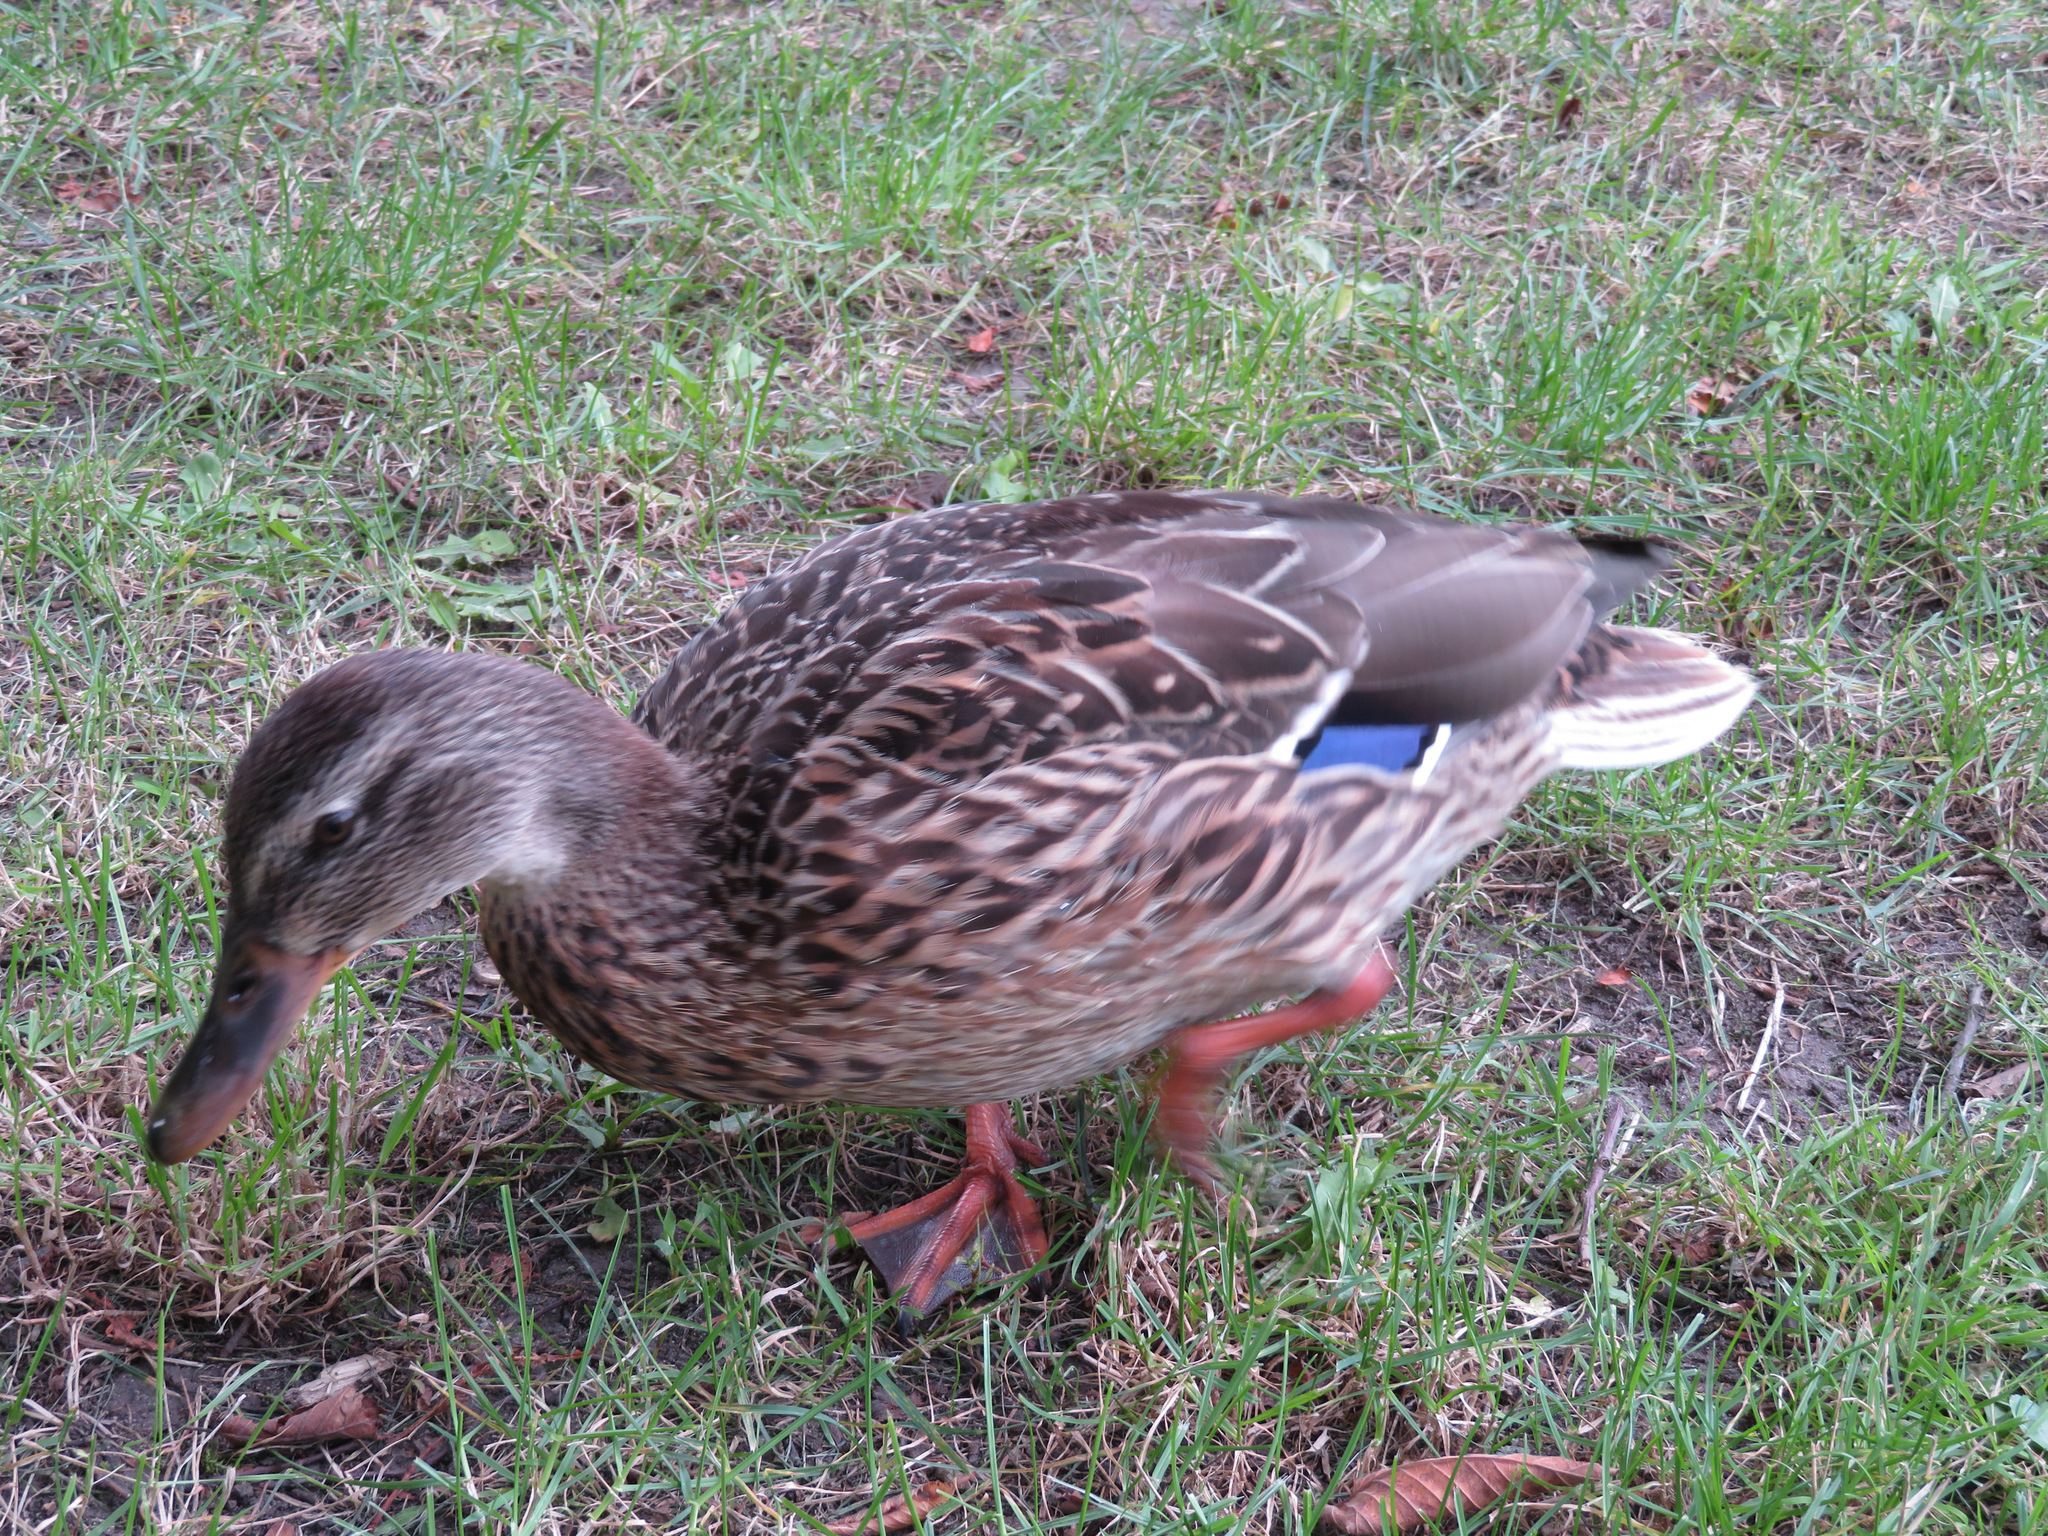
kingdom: Animalia
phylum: Chordata
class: Aves
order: Anseriformes
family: Anatidae
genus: Anas
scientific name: Anas platyrhynchos
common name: Mallard
